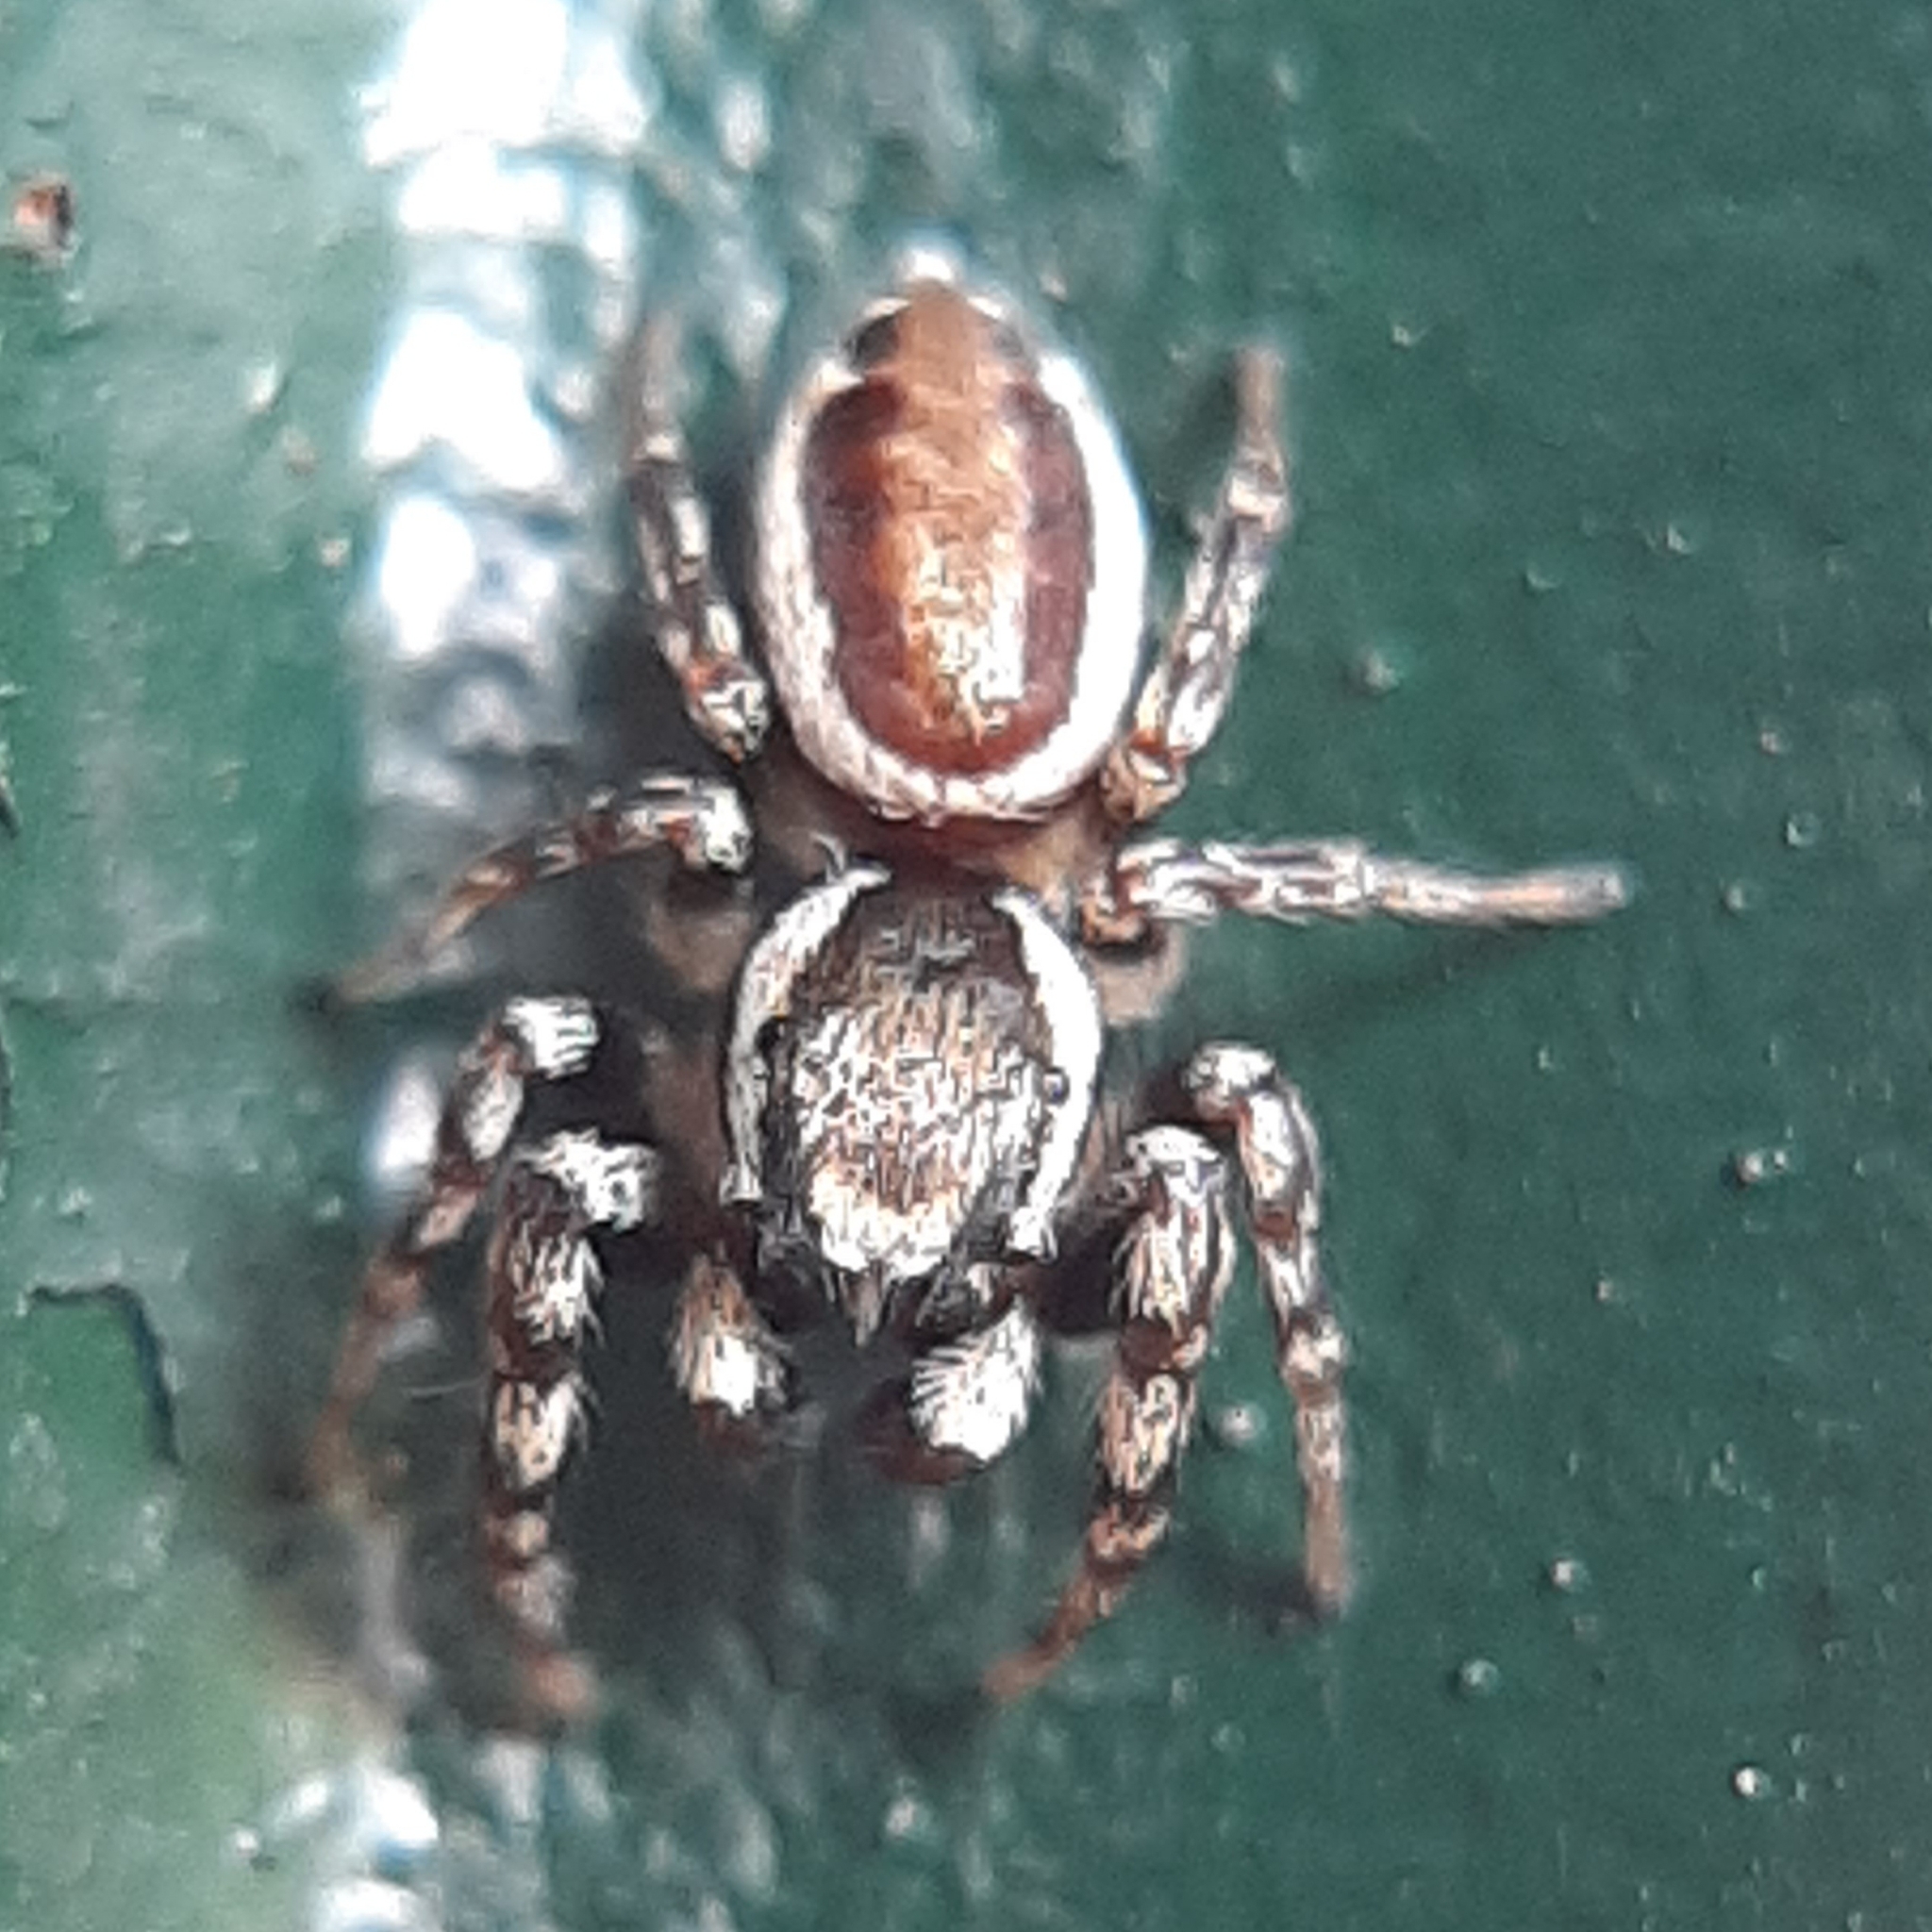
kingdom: Animalia
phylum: Arthropoda
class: Arachnida
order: Araneae
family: Salticidae
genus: Pelegrina
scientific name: Pelegrina proterva
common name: Common white-cheeked jumping spider
